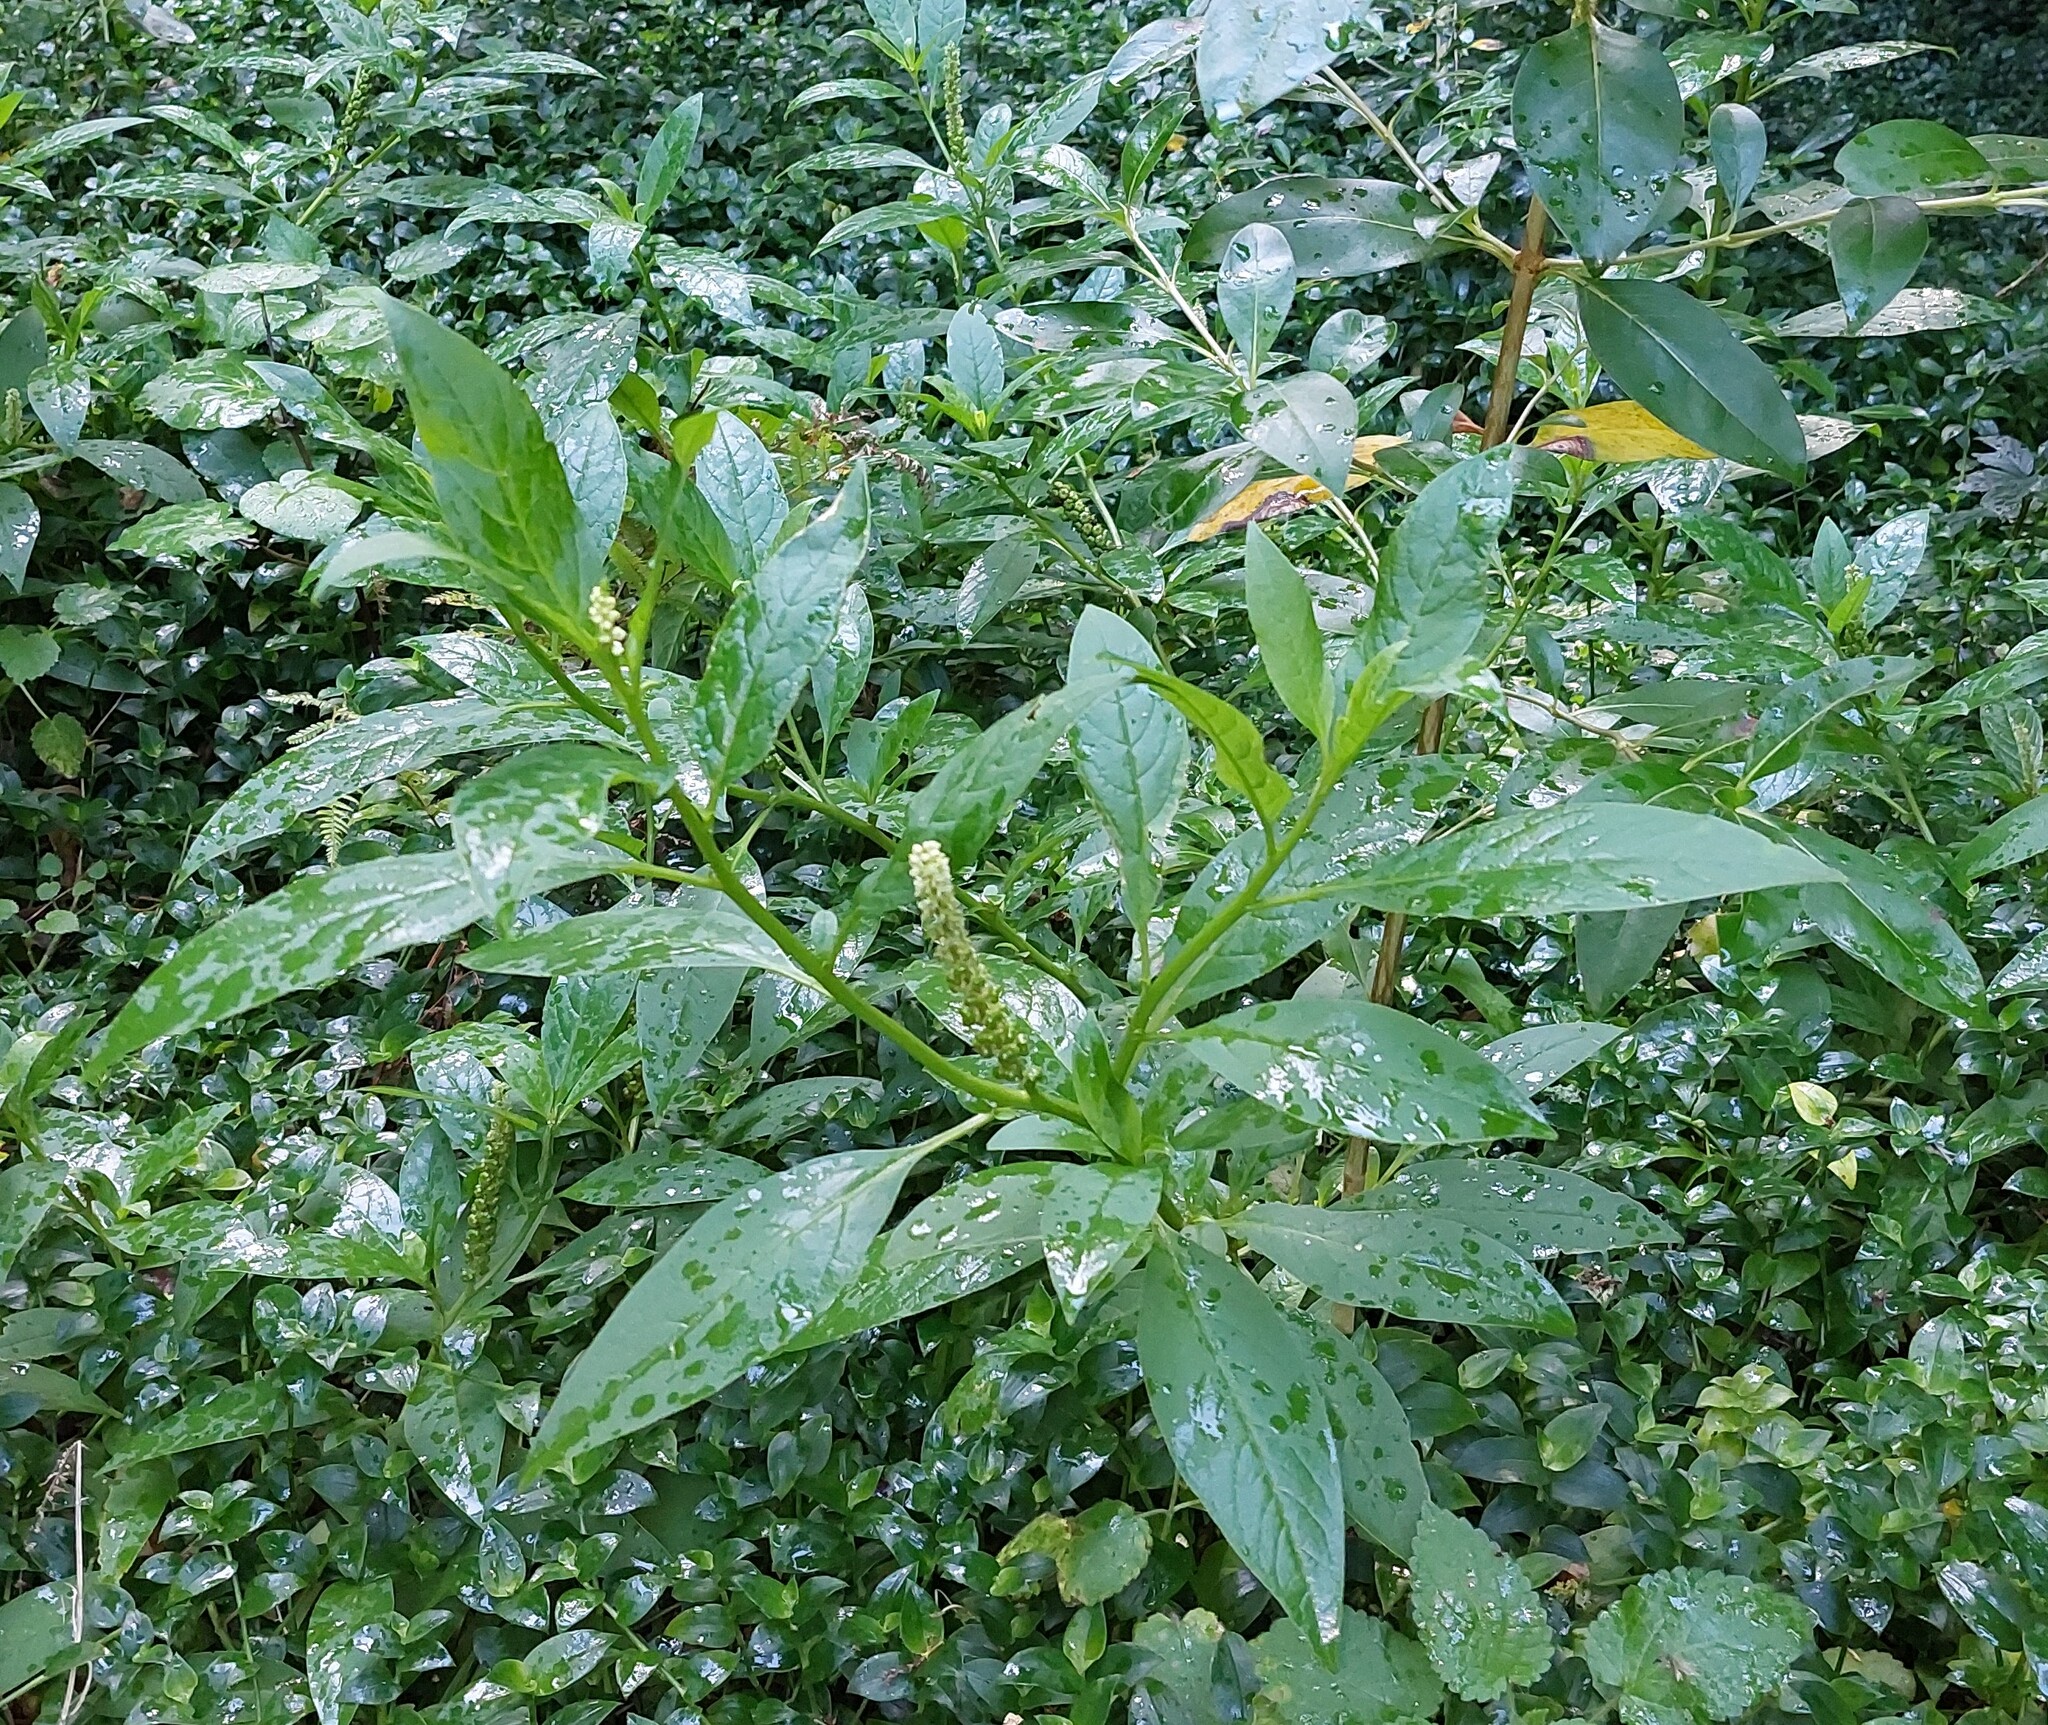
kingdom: Plantae
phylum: Tracheophyta
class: Magnoliopsida
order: Caryophyllales
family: Phytolaccaceae
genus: Phytolacca
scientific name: Phytolacca icosandra
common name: Button pokeweed
